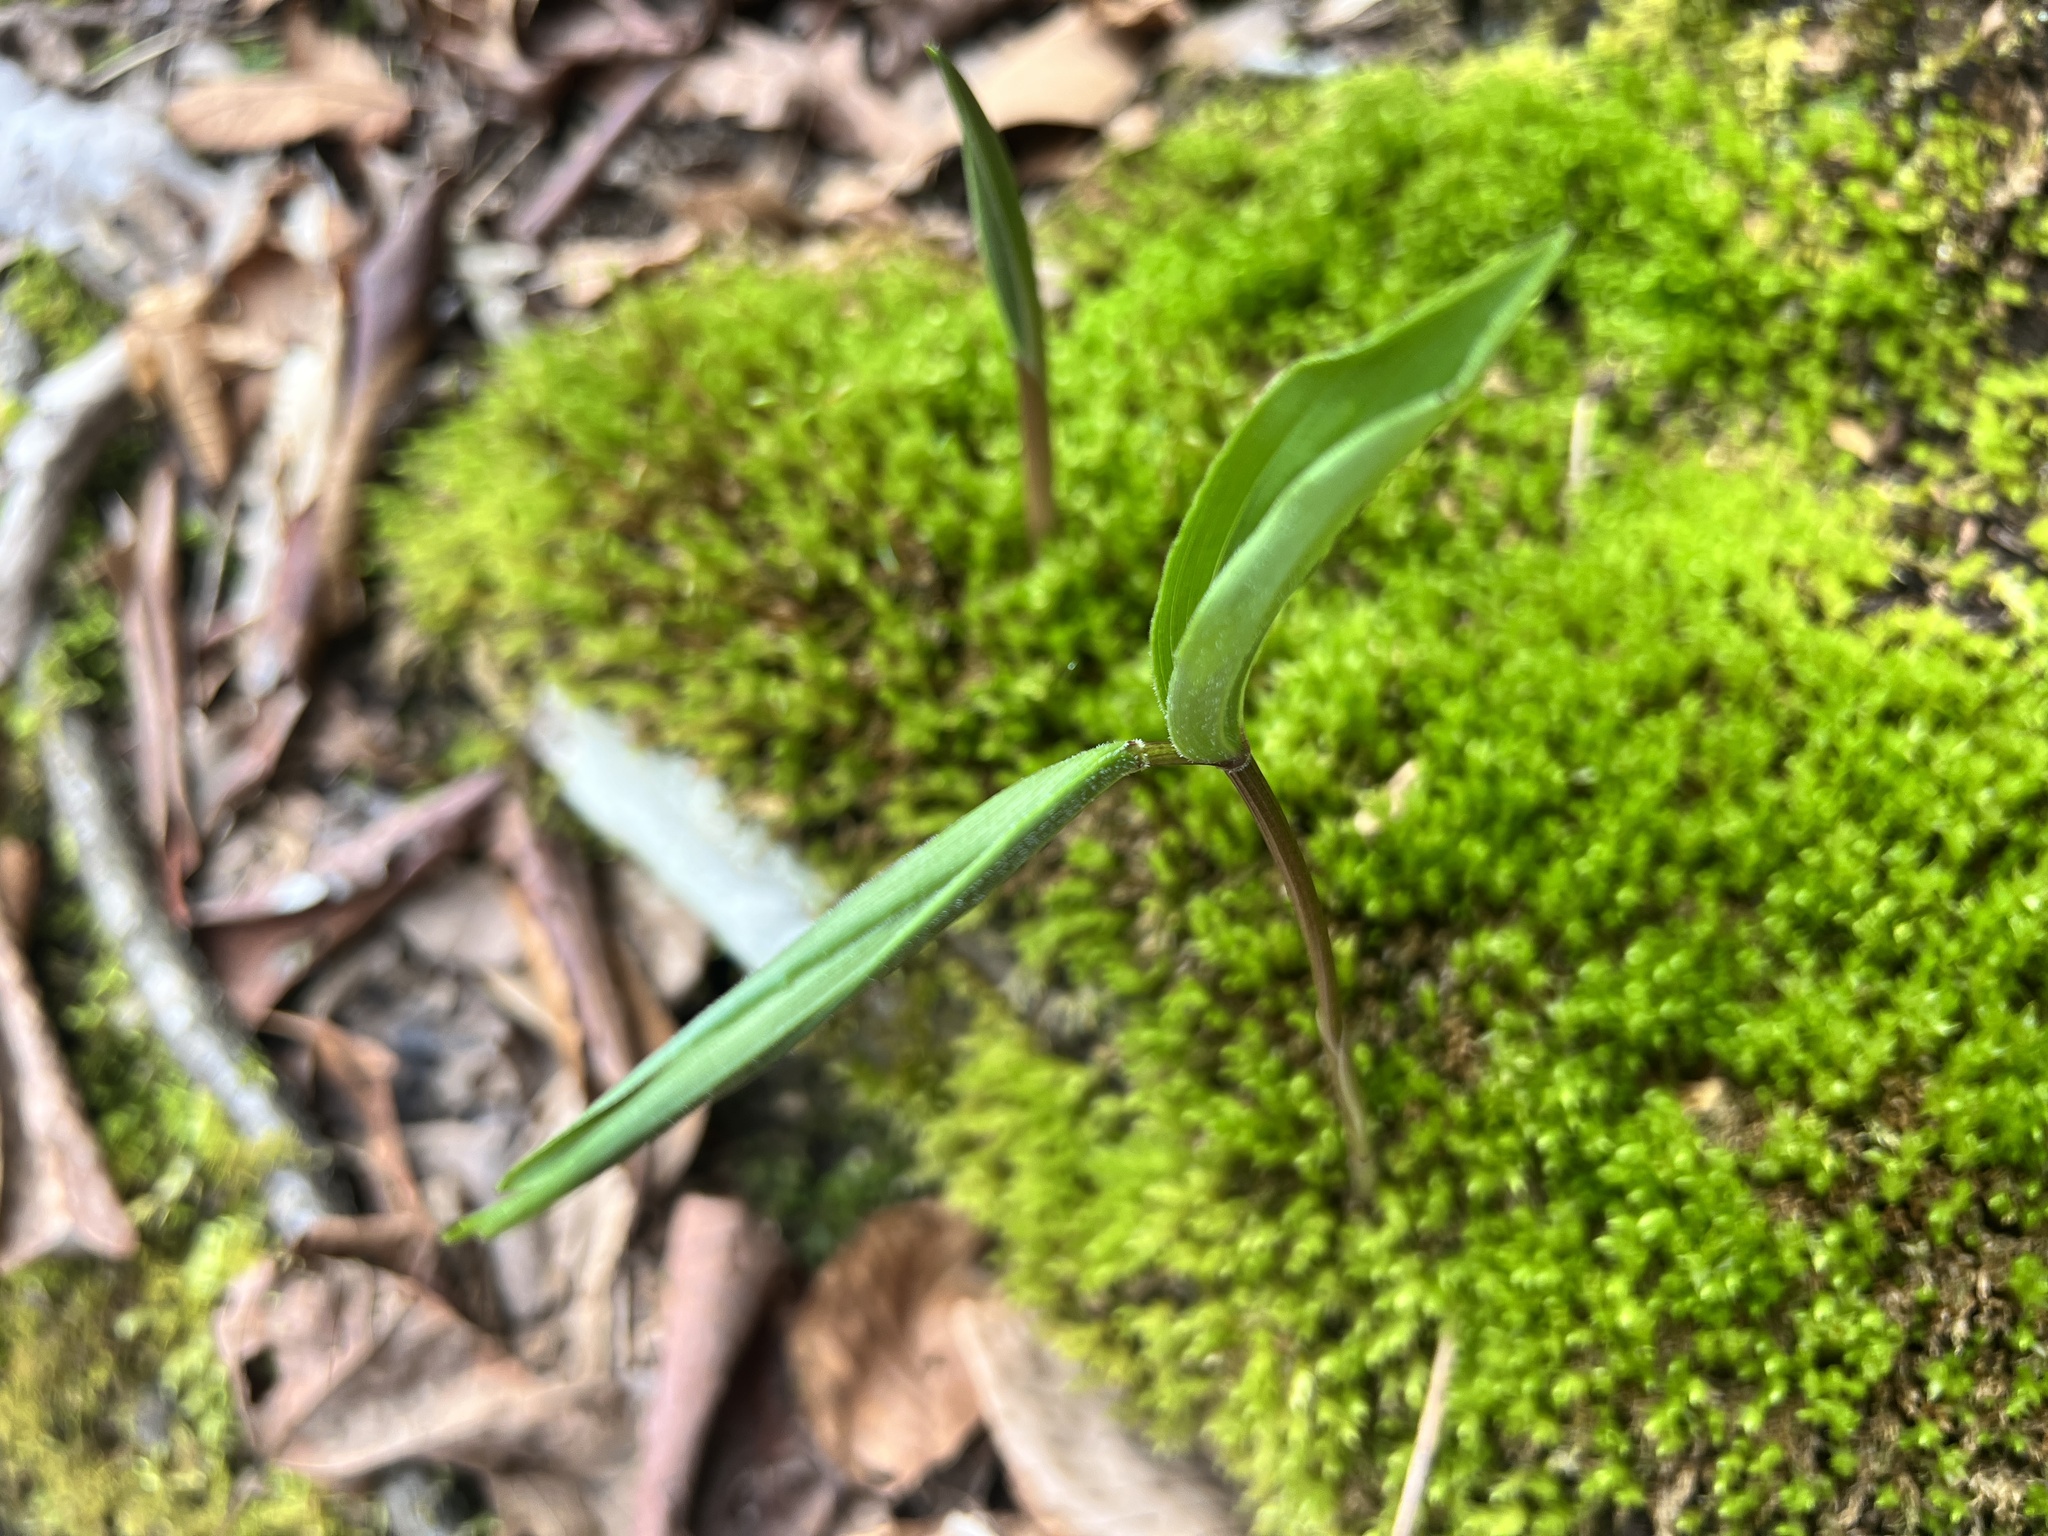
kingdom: Plantae
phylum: Tracheophyta
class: Liliopsida
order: Asparagales
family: Asparagaceae
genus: Maianthemum
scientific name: Maianthemum racemosum
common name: False spikenard
